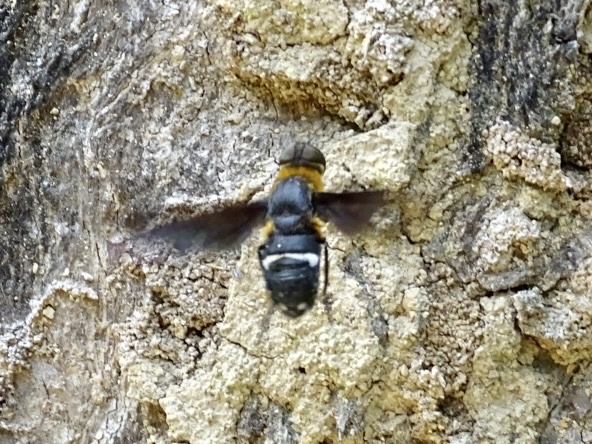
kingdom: Animalia
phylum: Arthropoda
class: Insecta
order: Diptera
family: Bombyliidae
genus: Ligyra
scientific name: Ligyra tantalus
